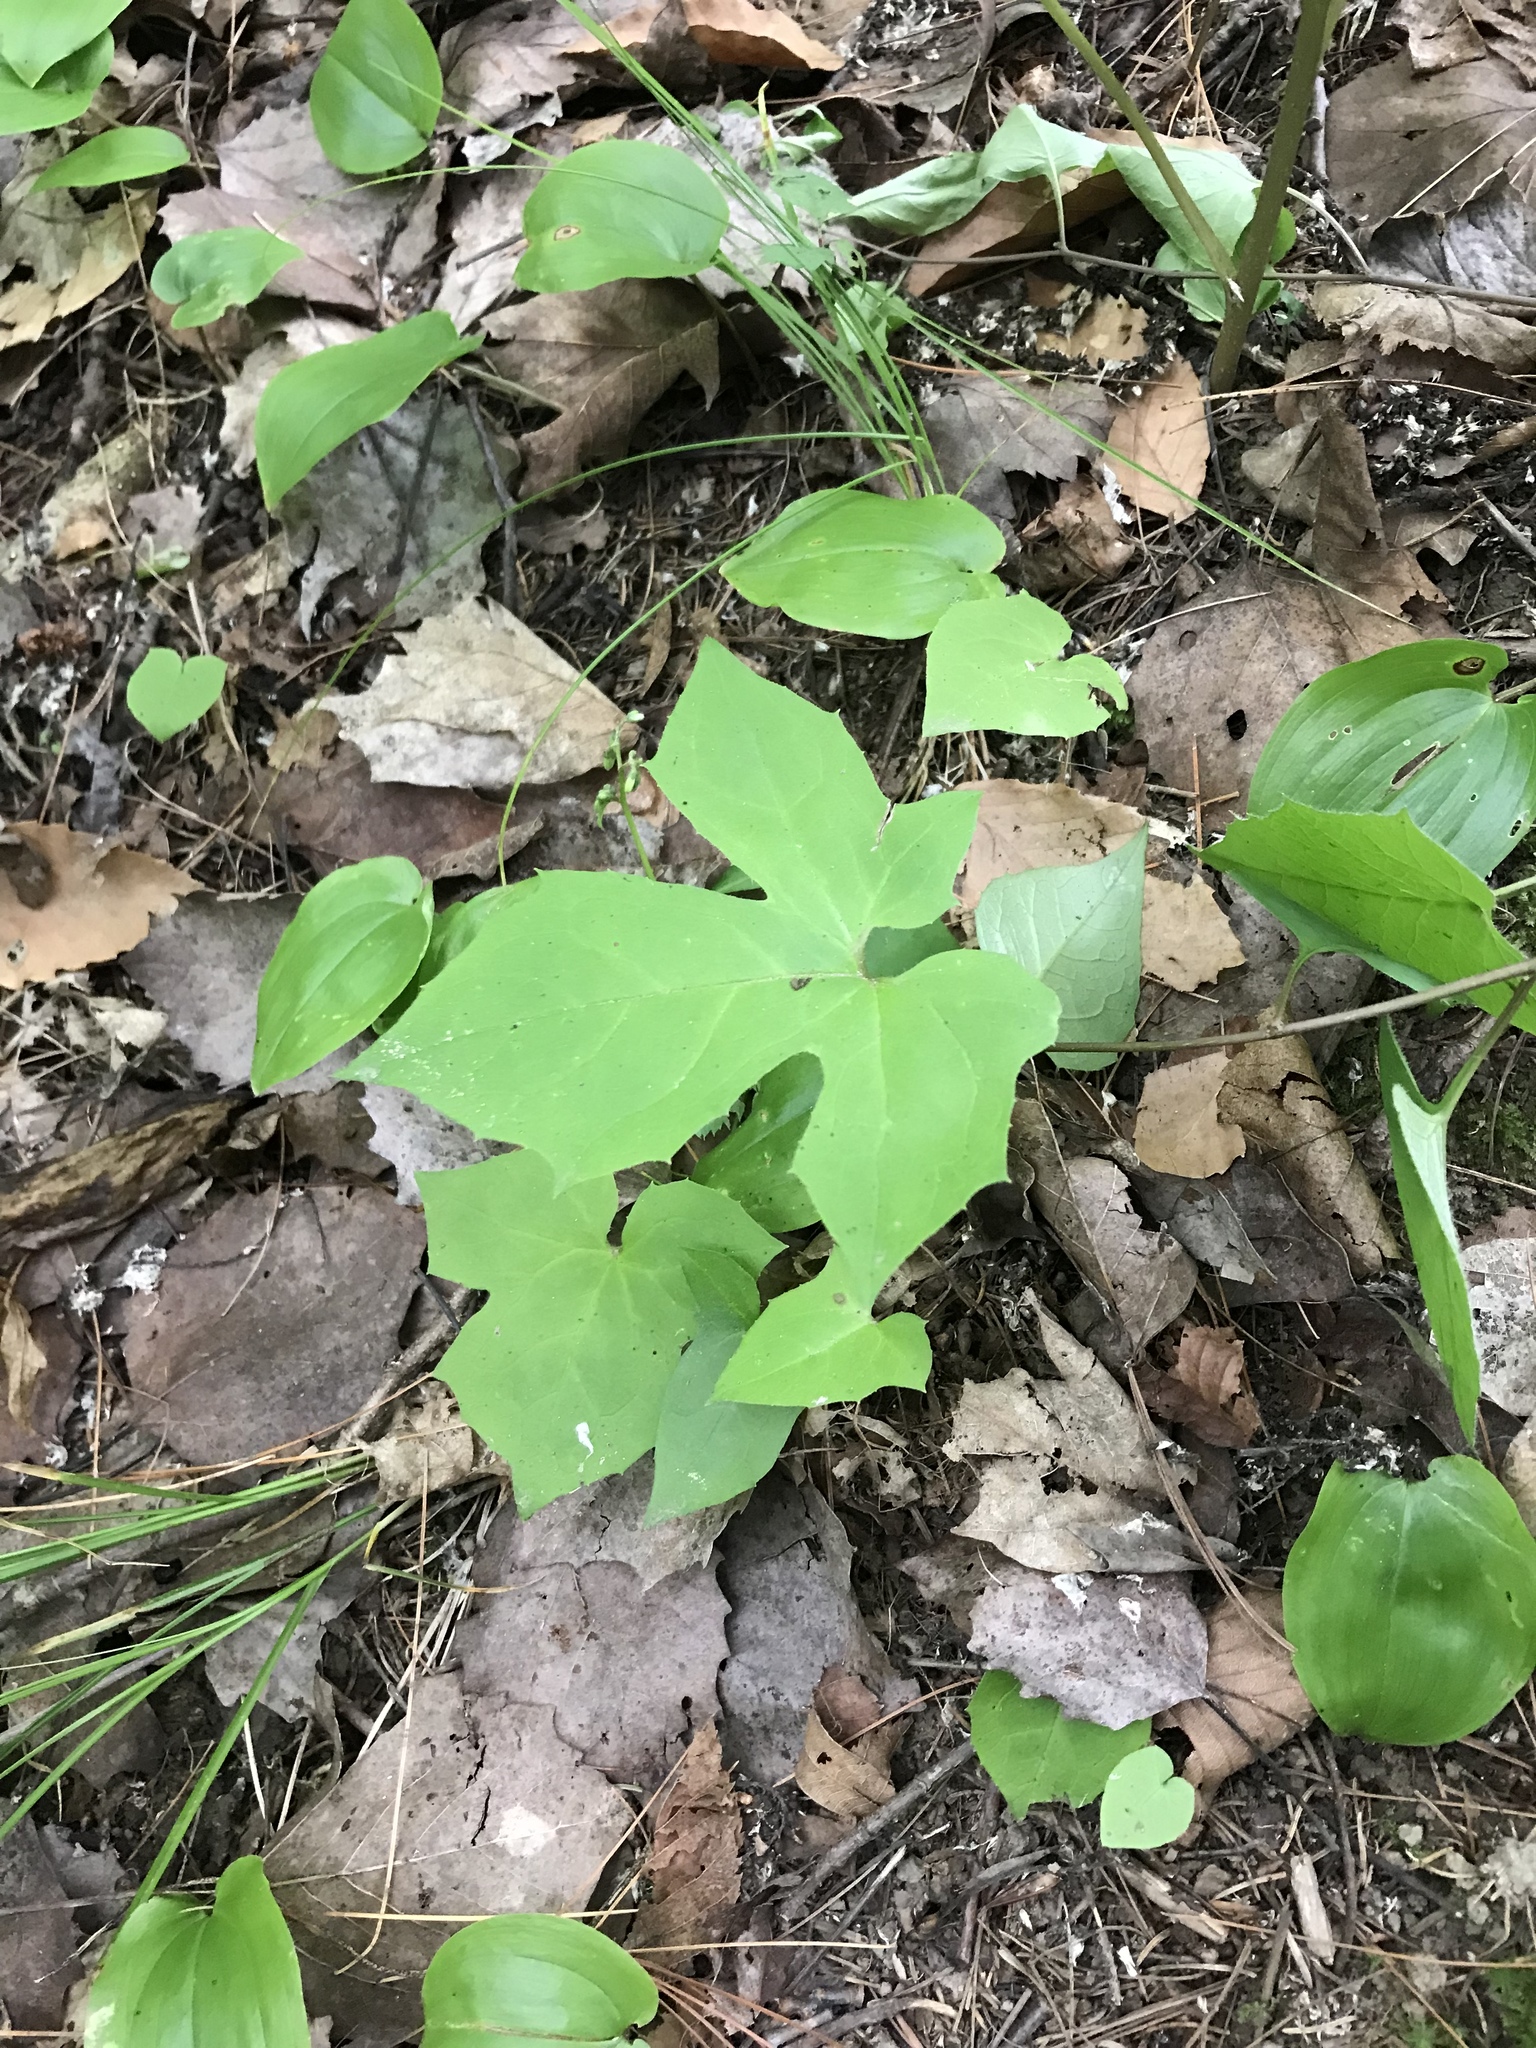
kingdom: Plantae
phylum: Tracheophyta
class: Magnoliopsida
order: Asterales
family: Asteraceae
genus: Nabalus
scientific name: Nabalus altissima
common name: Tall rattlesnakeroot
